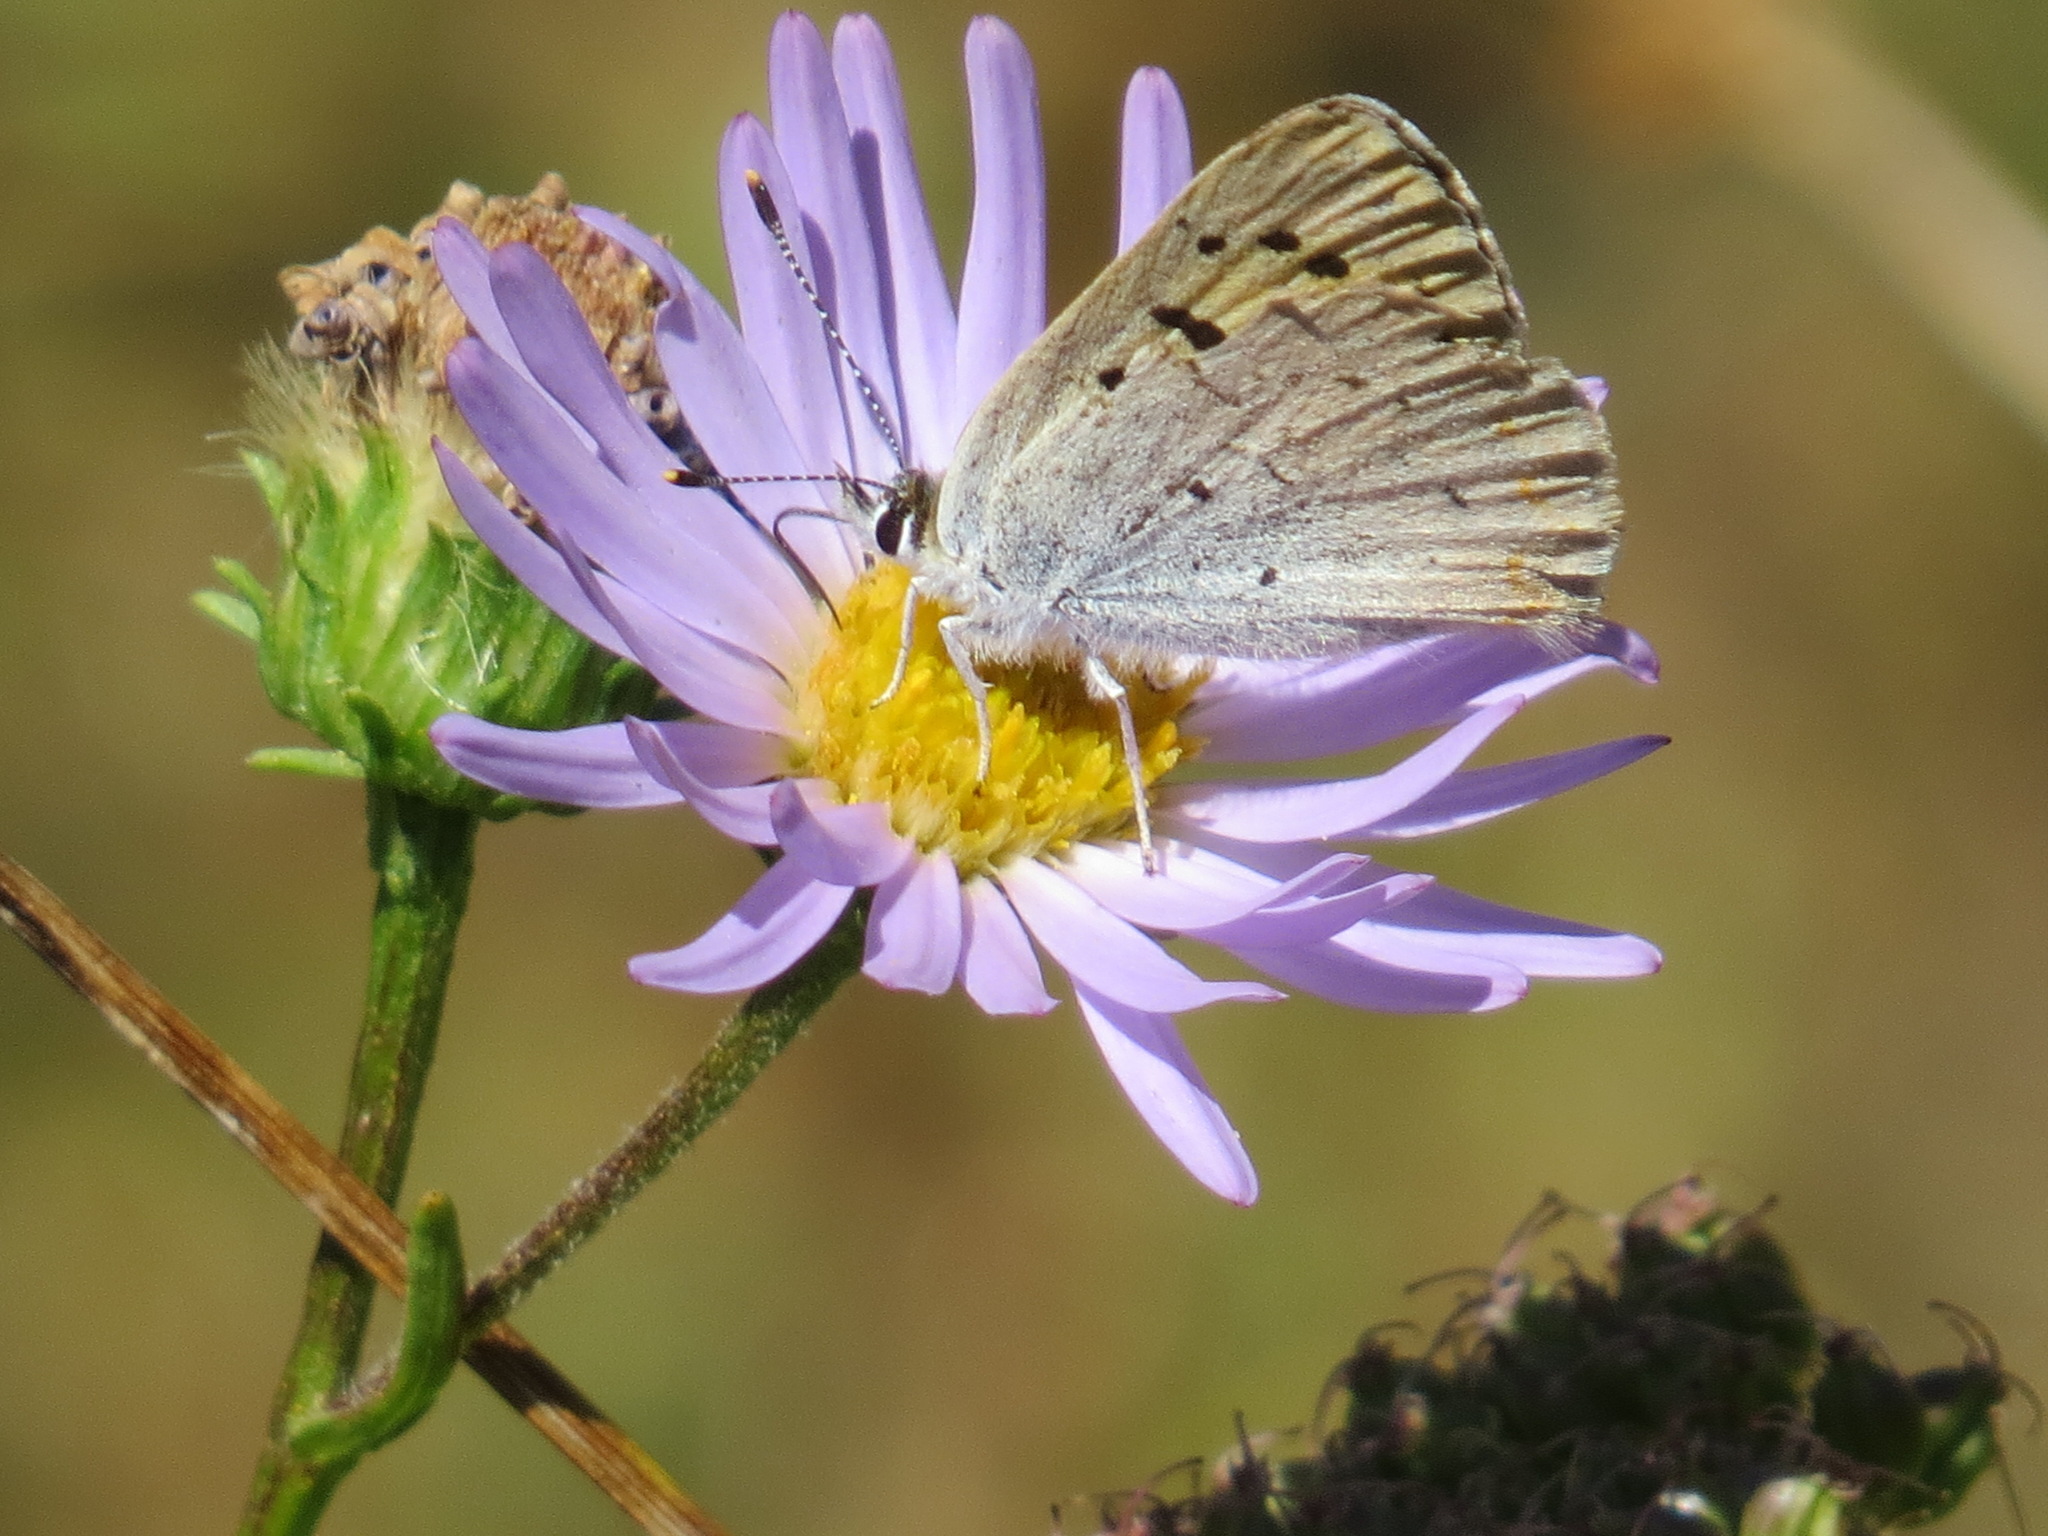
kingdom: Animalia
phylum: Arthropoda
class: Insecta
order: Lepidoptera
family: Lycaenidae
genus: Tharsalea
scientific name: Tharsalea nivalis
